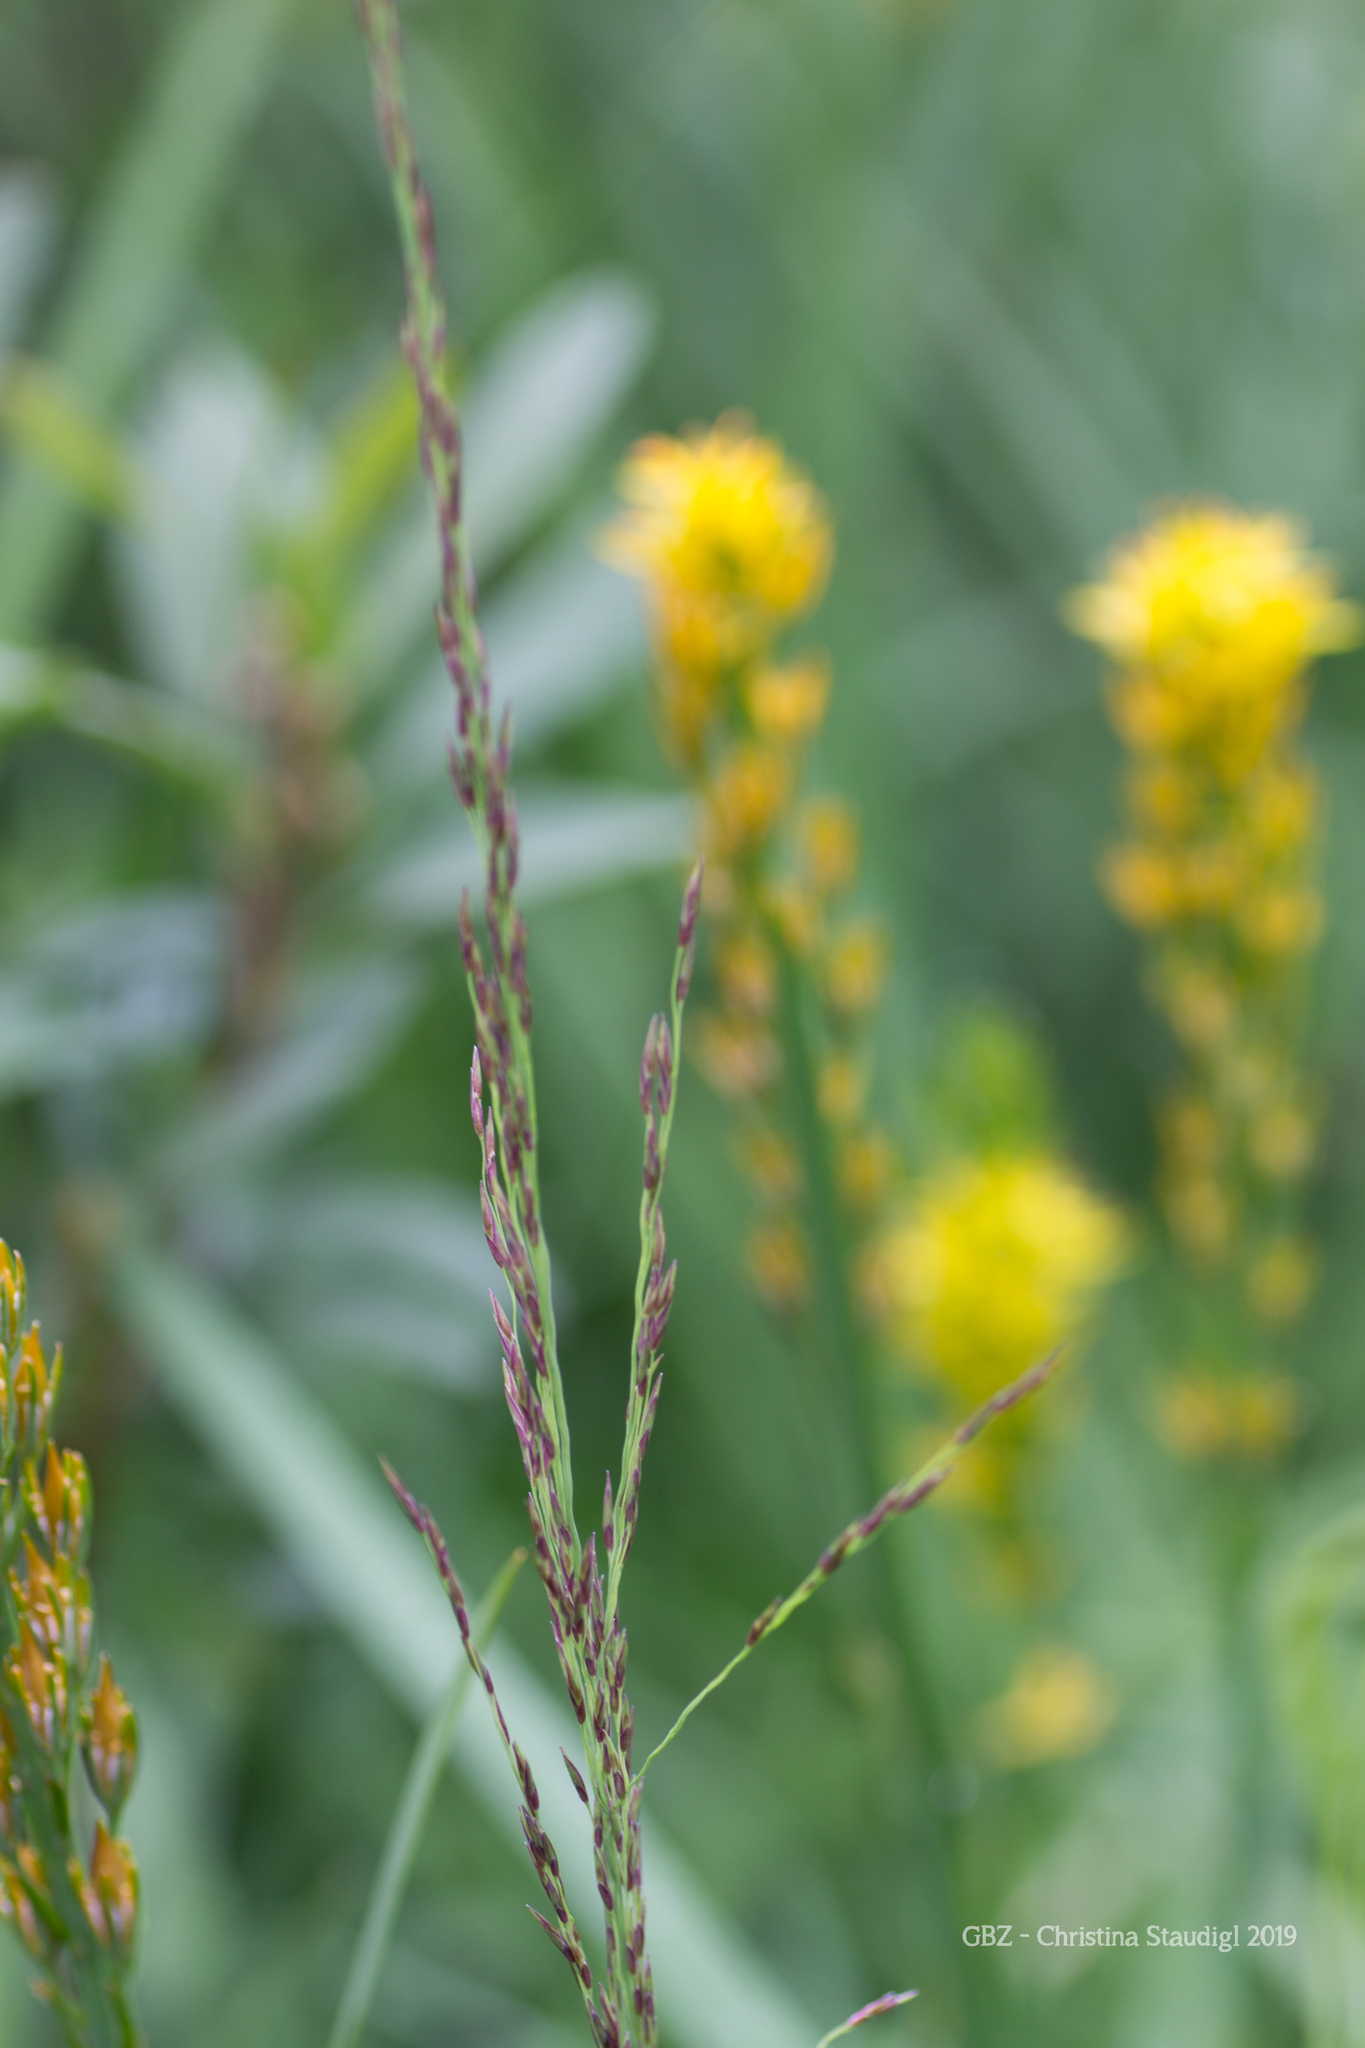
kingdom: Plantae
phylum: Tracheophyta
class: Liliopsida
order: Poales
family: Poaceae
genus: Molinia
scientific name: Molinia caerulea
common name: Purple moor-grass
